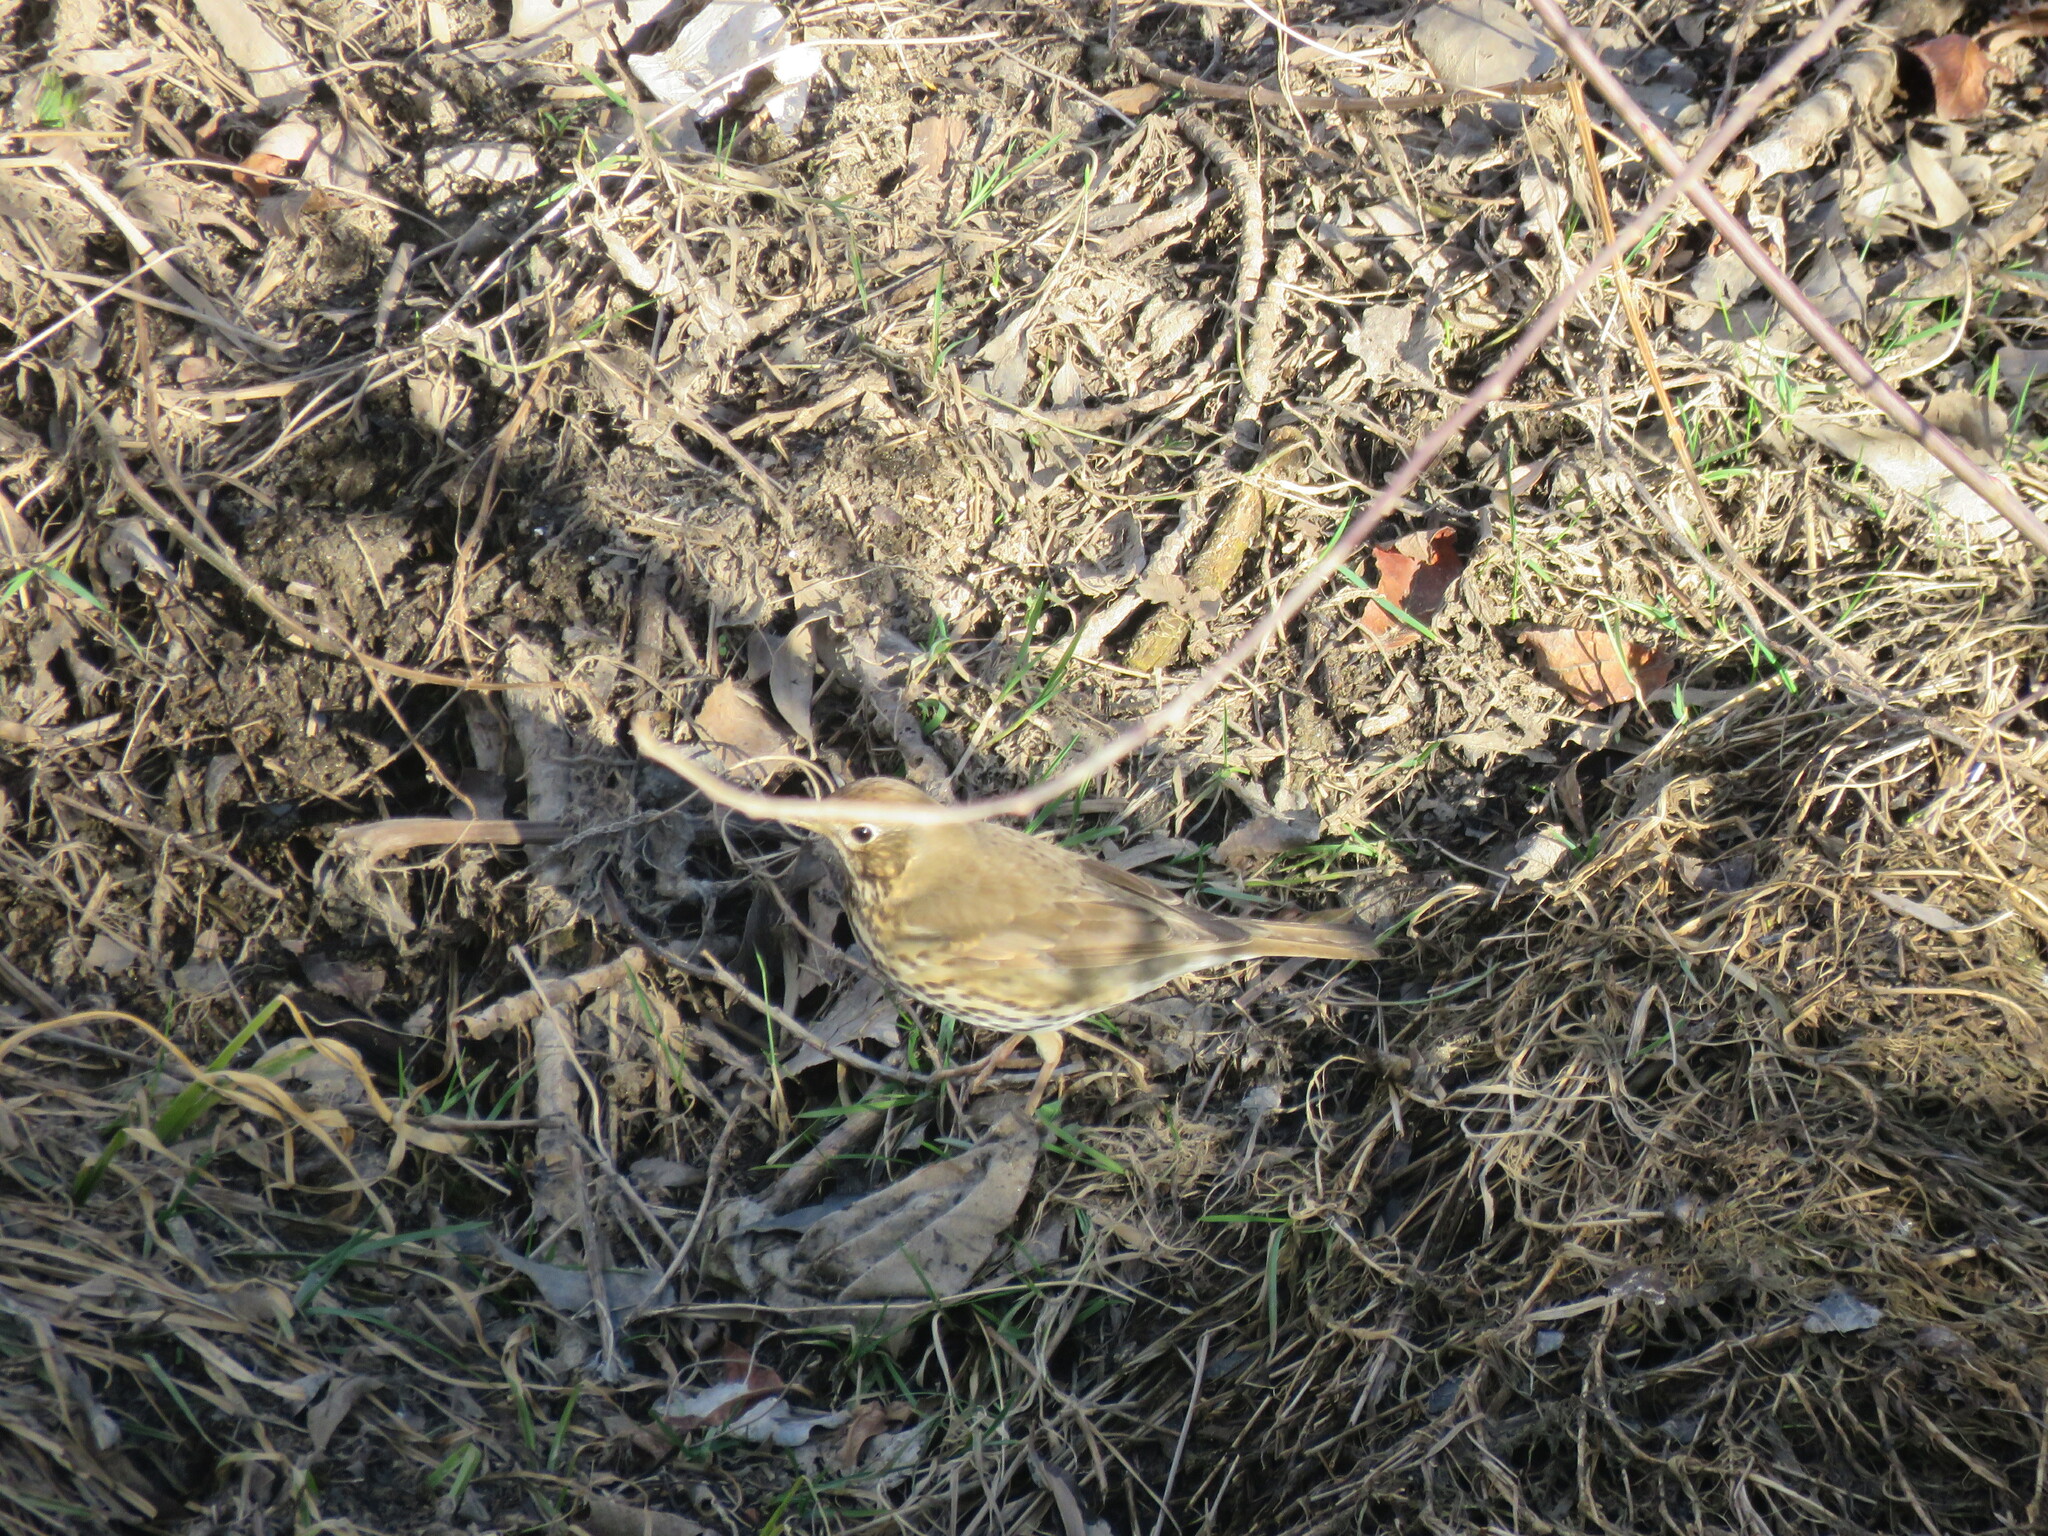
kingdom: Animalia
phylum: Chordata
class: Aves
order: Passeriformes
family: Turdidae
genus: Turdus
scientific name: Turdus philomelos
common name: Song thrush
